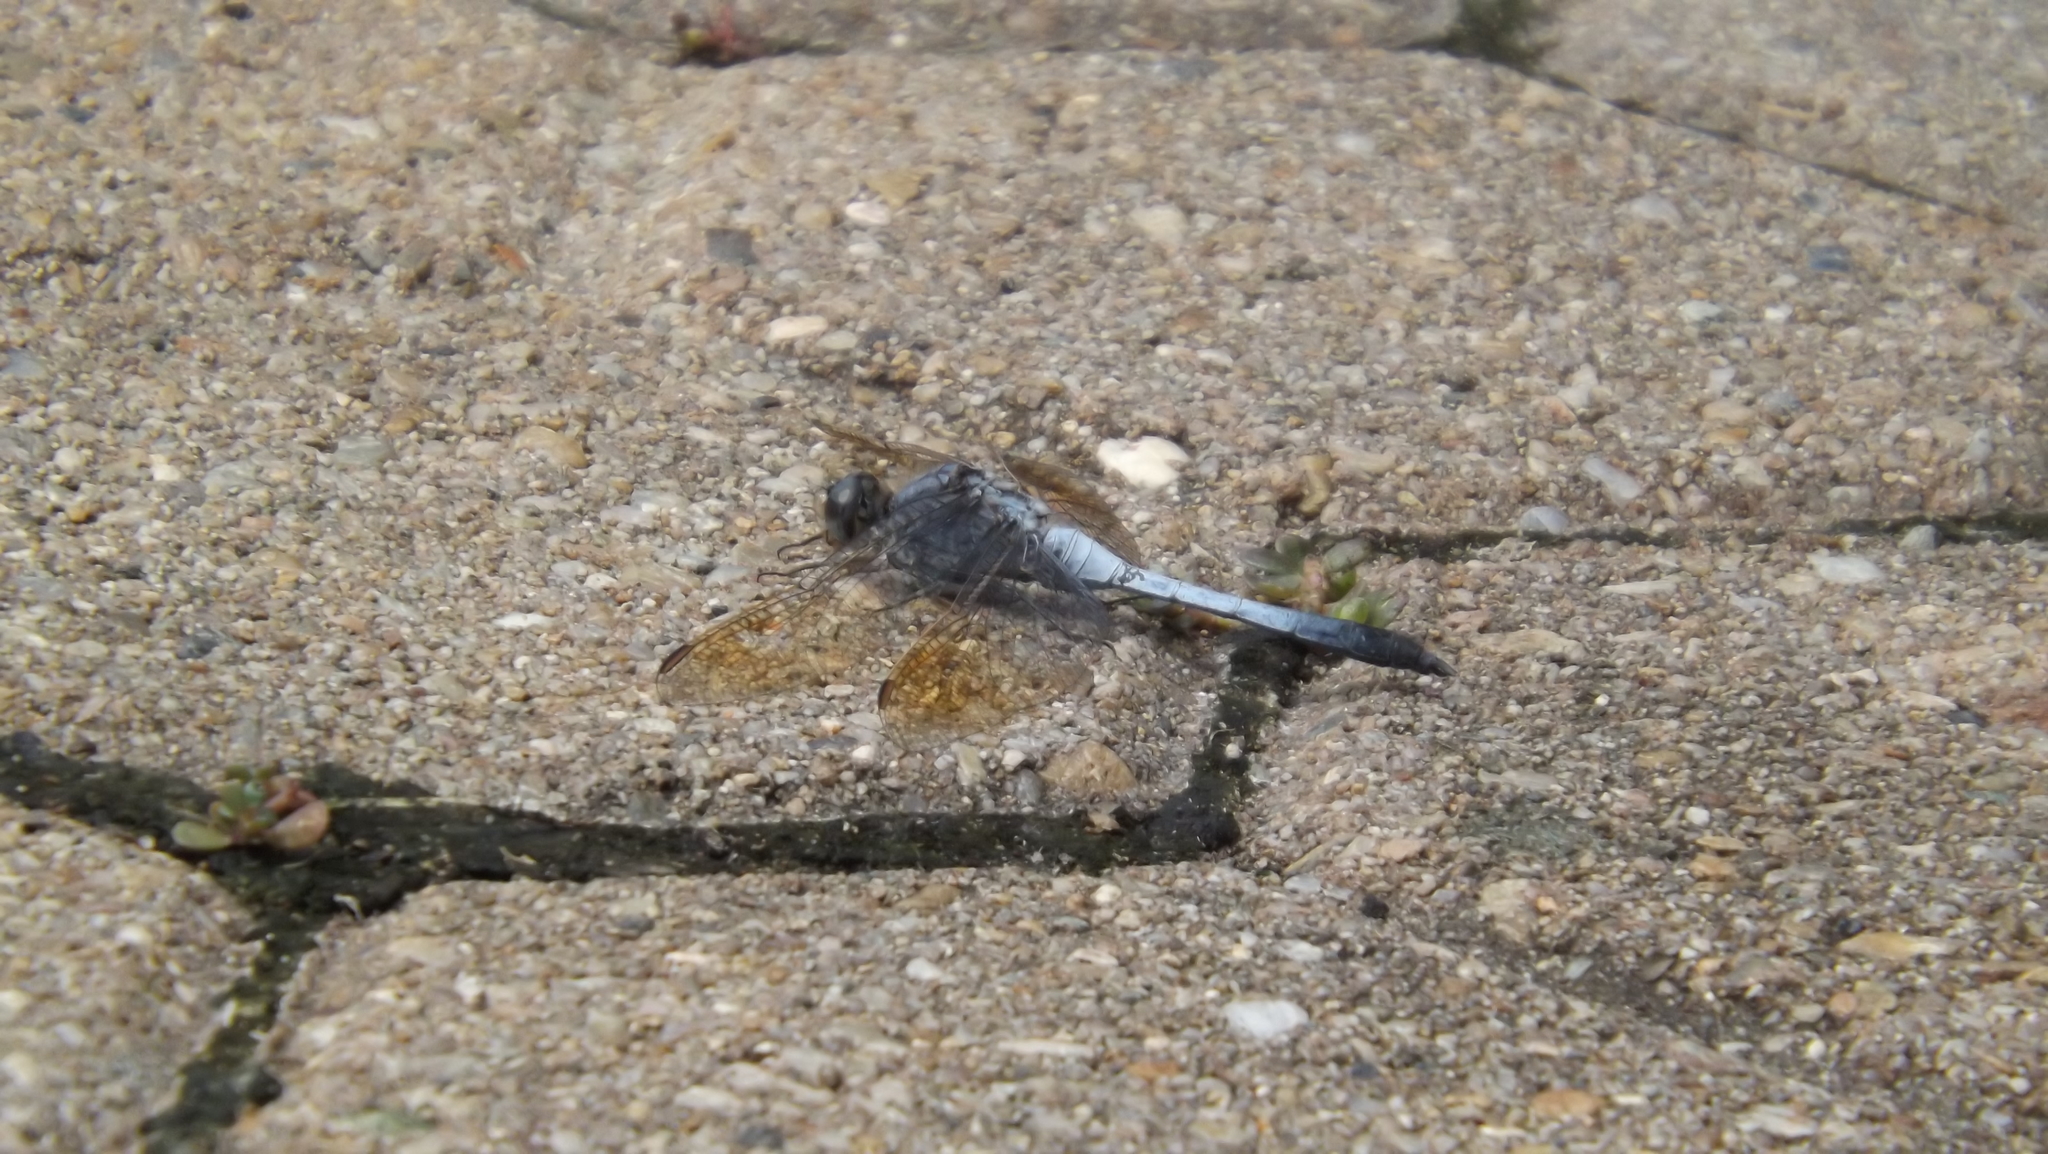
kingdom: Animalia
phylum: Arthropoda
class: Insecta
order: Odonata
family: Libellulidae
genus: Orthetrum
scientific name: Orthetrum caledonicum
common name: Blue skimmer
